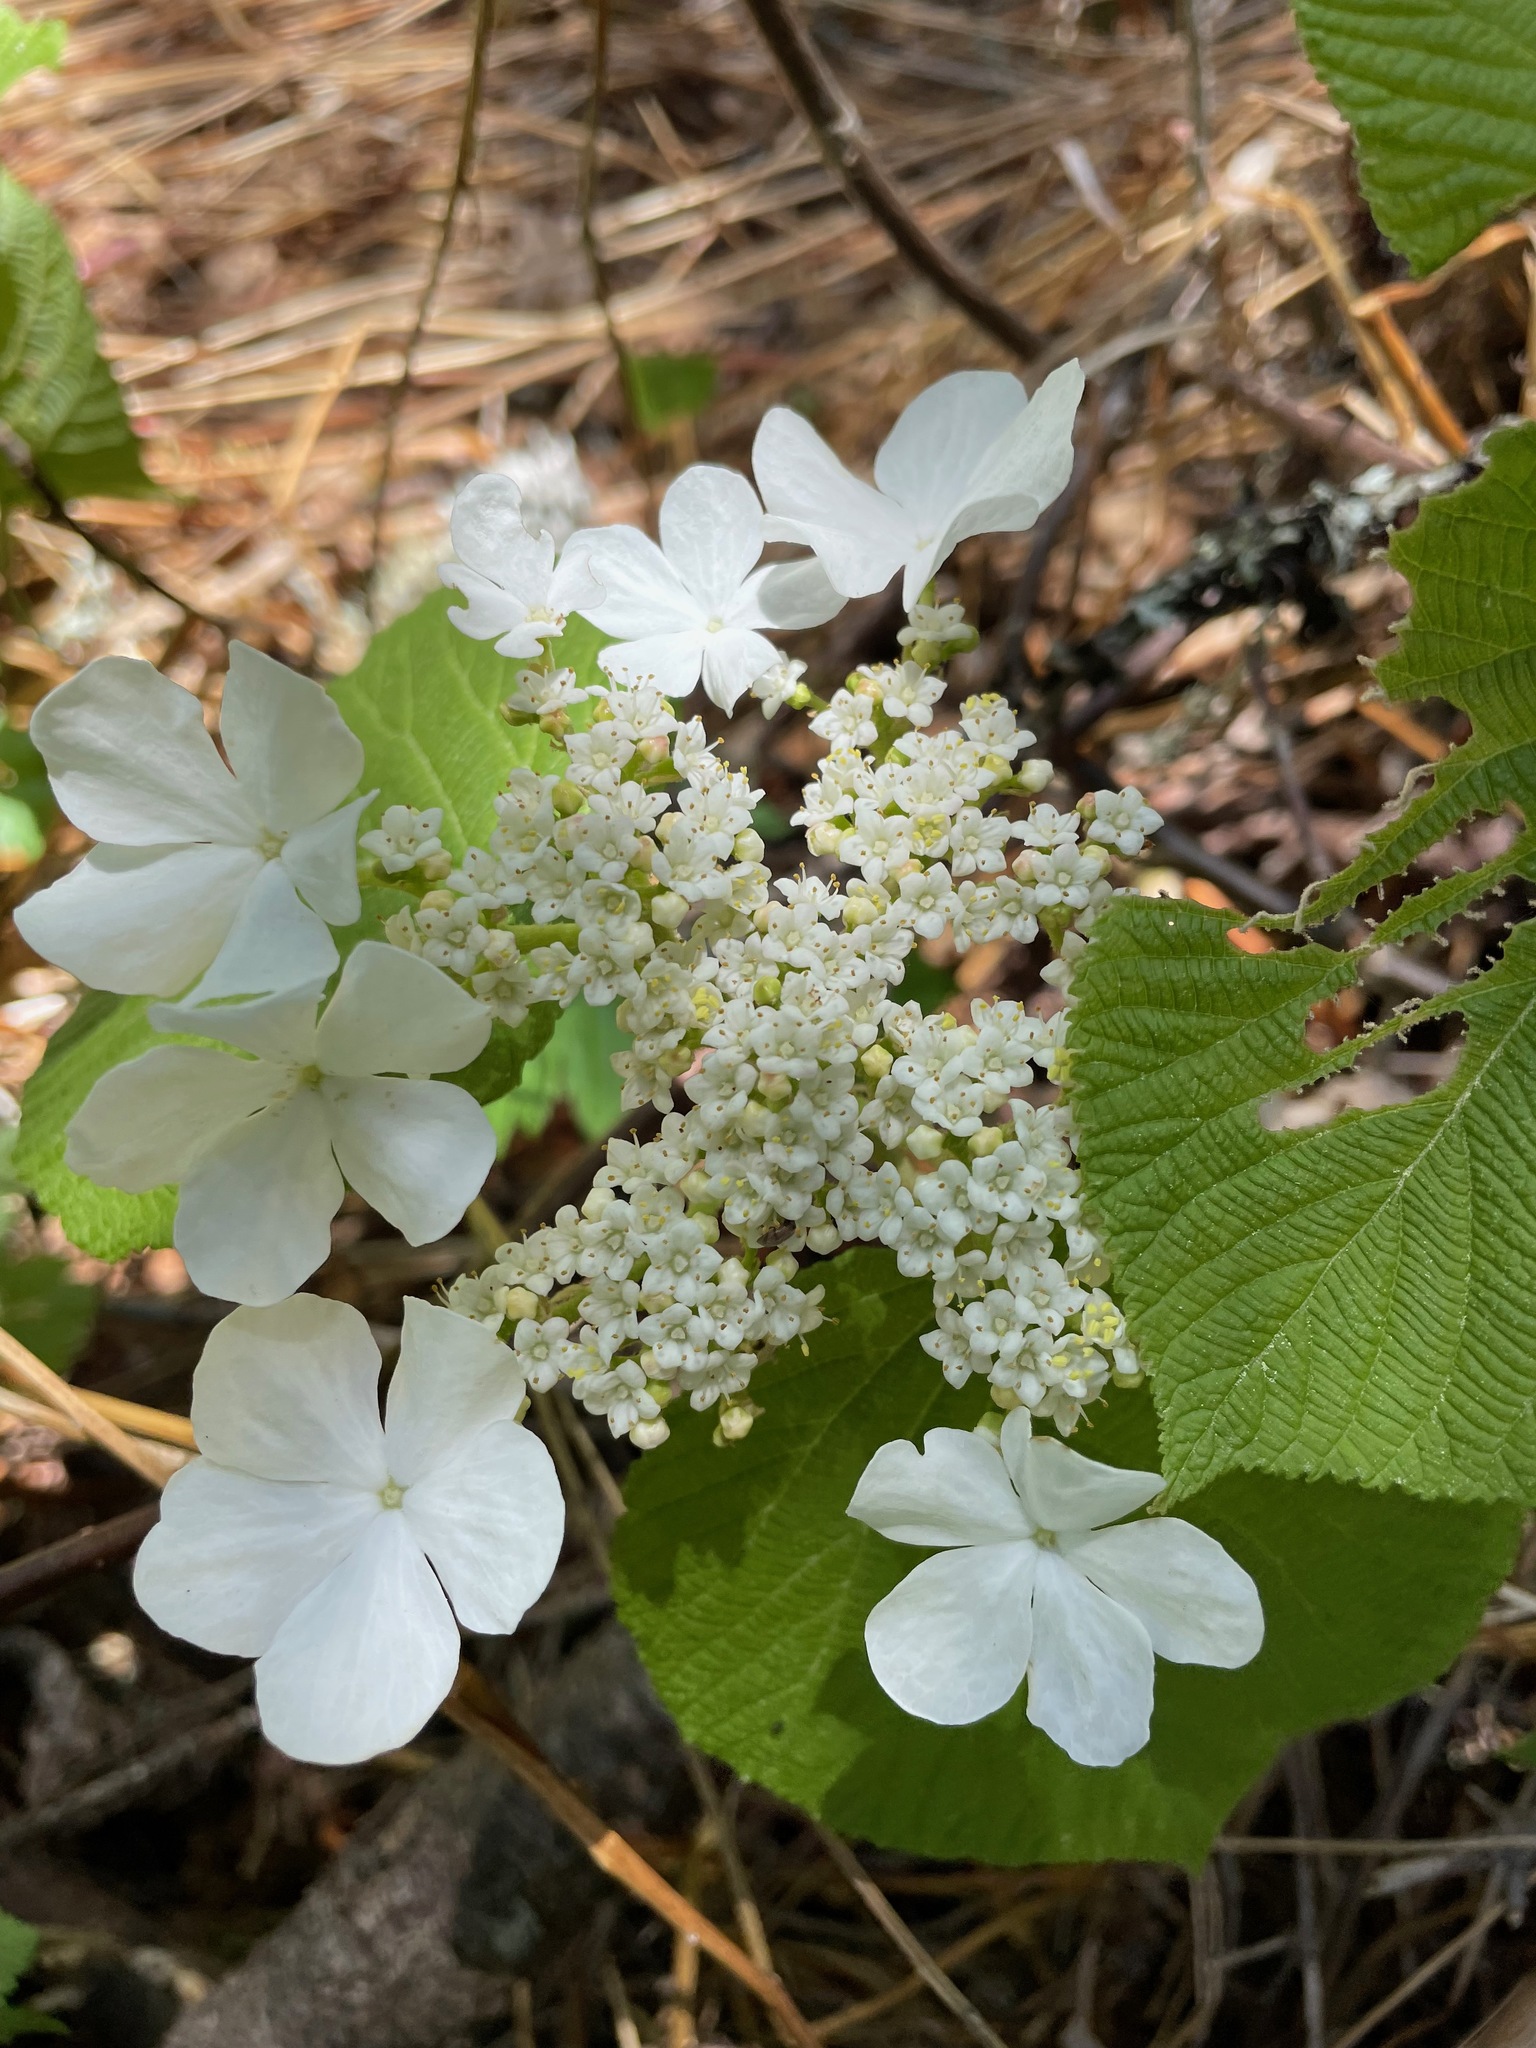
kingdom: Plantae
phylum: Tracheophyta
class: Magnoliopsida
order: Dipsacales
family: Viburnaceae
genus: Viburnum
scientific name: Viburnum lantanoides
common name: Hobblebush
